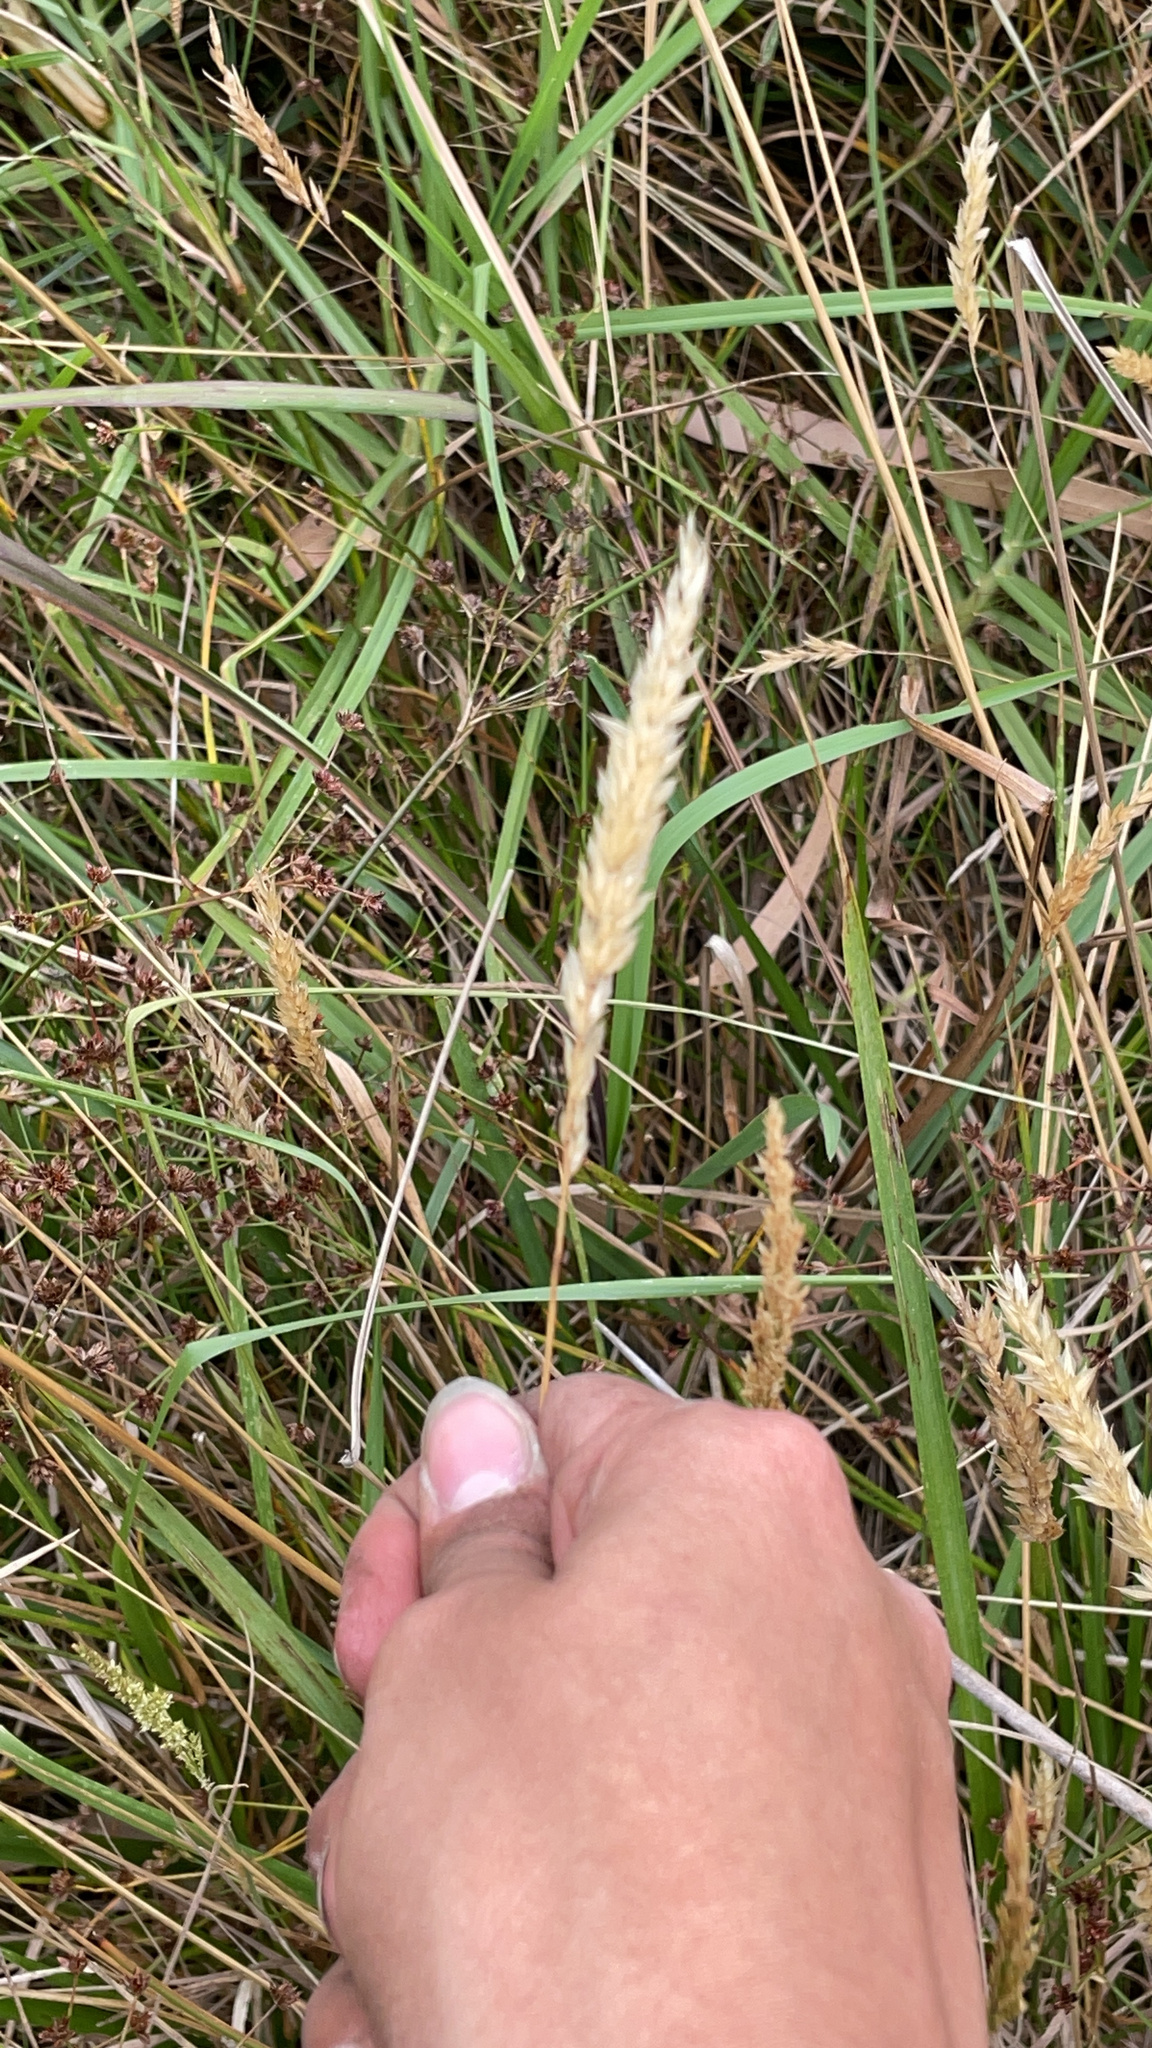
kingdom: Plantae
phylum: Tracheophyta
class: Liliopsida
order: Poales
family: Poaceae
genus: Anthoxanthum
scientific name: Anthoxanthum odoratum
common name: Sweet vernalgrass
